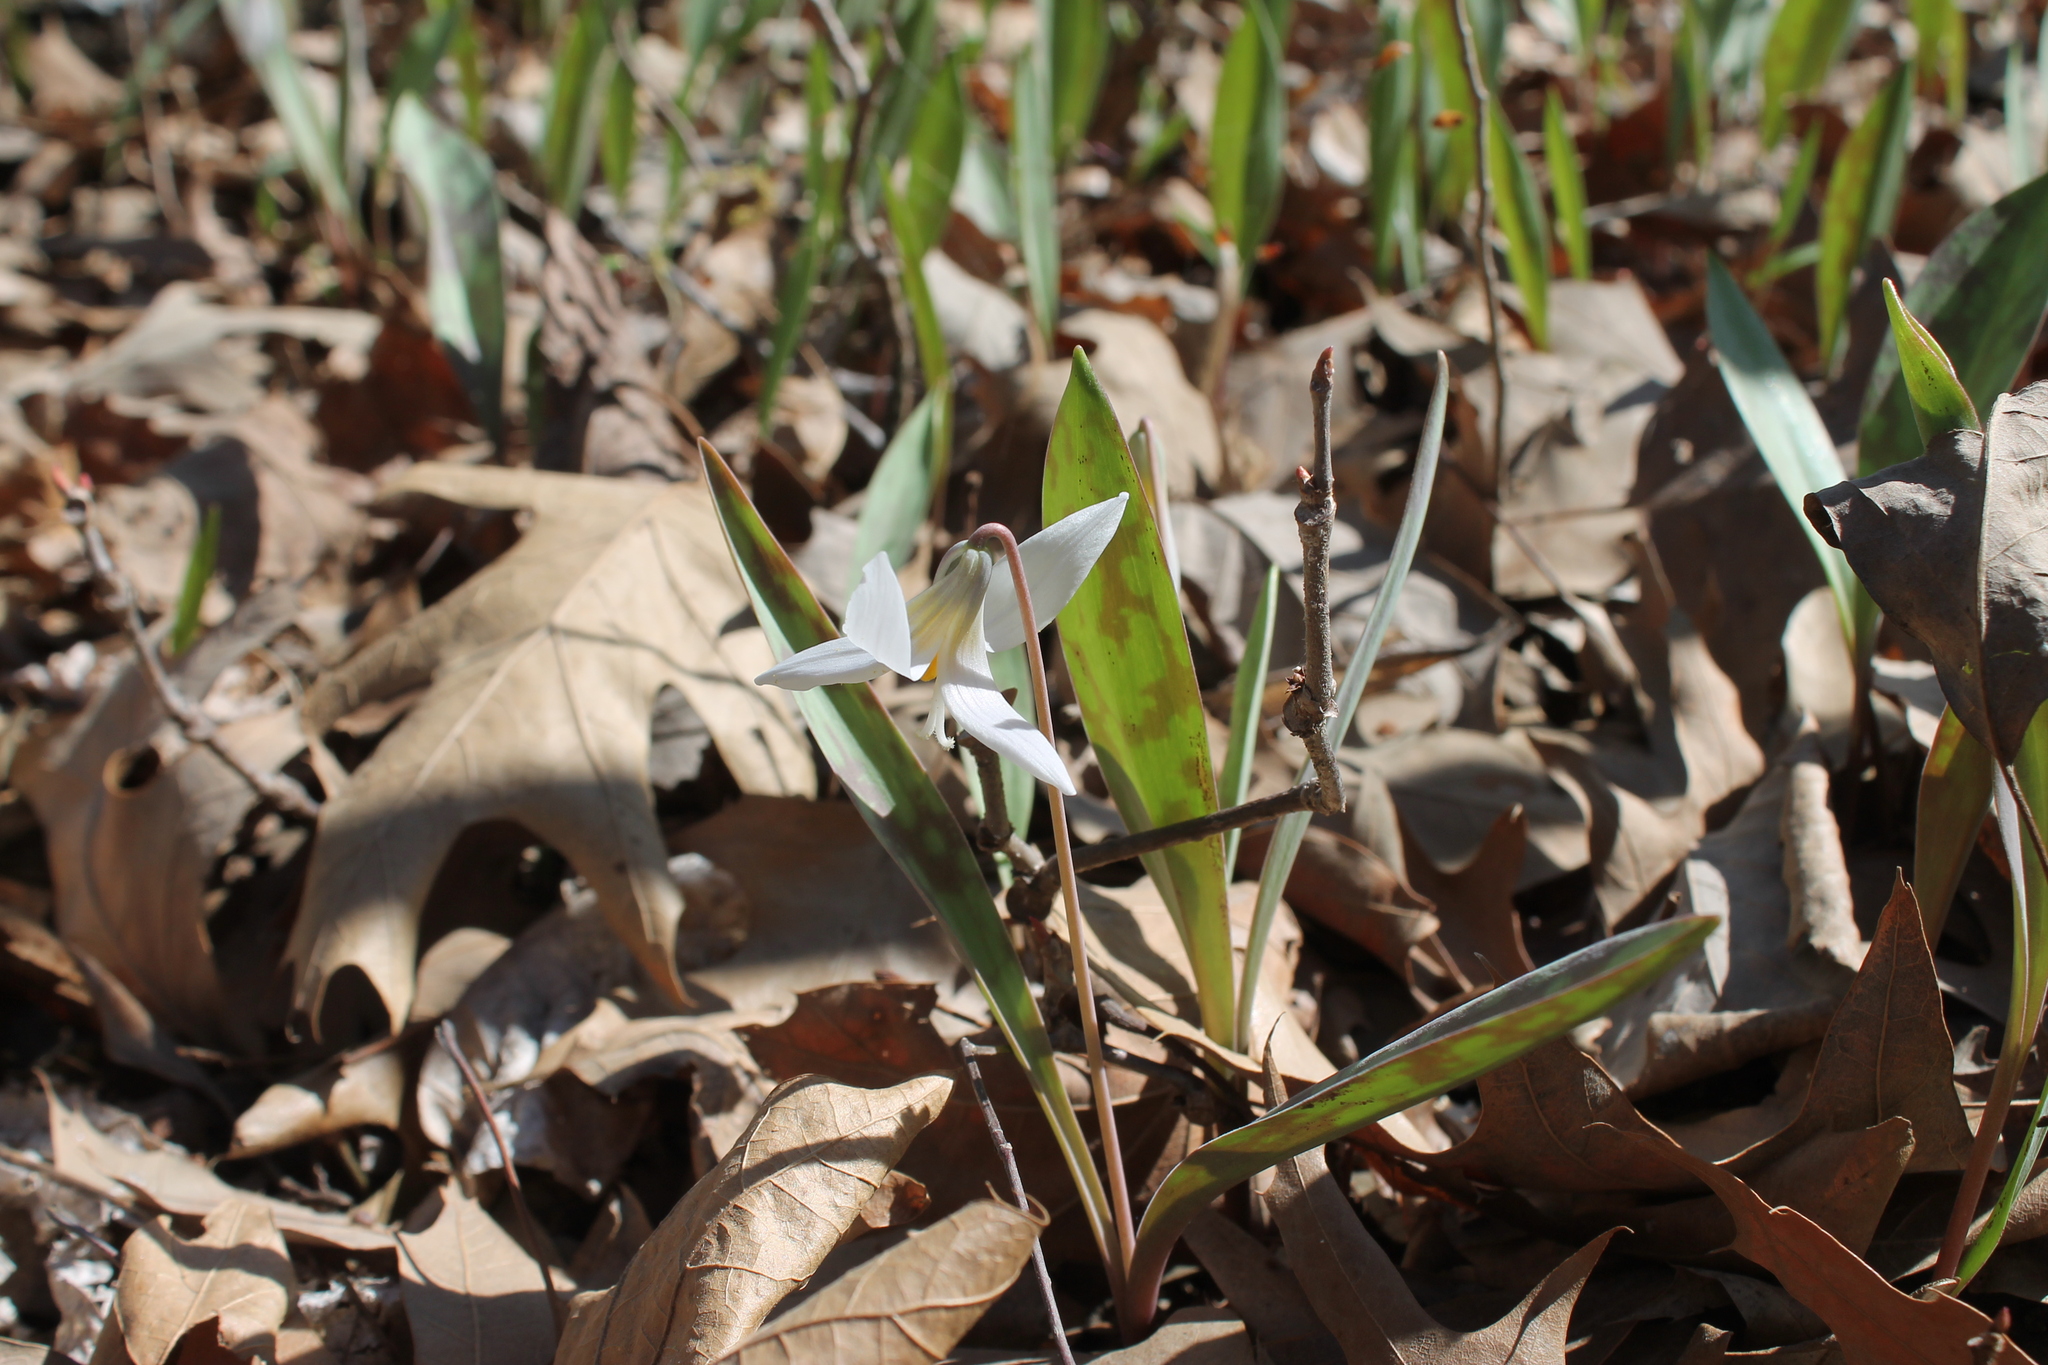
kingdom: Plantae
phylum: Tracheophyta
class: Liliopsida
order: Liliales
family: Liliaceae
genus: Erythronium
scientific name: Erythronium albidum
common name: White trout-lily
